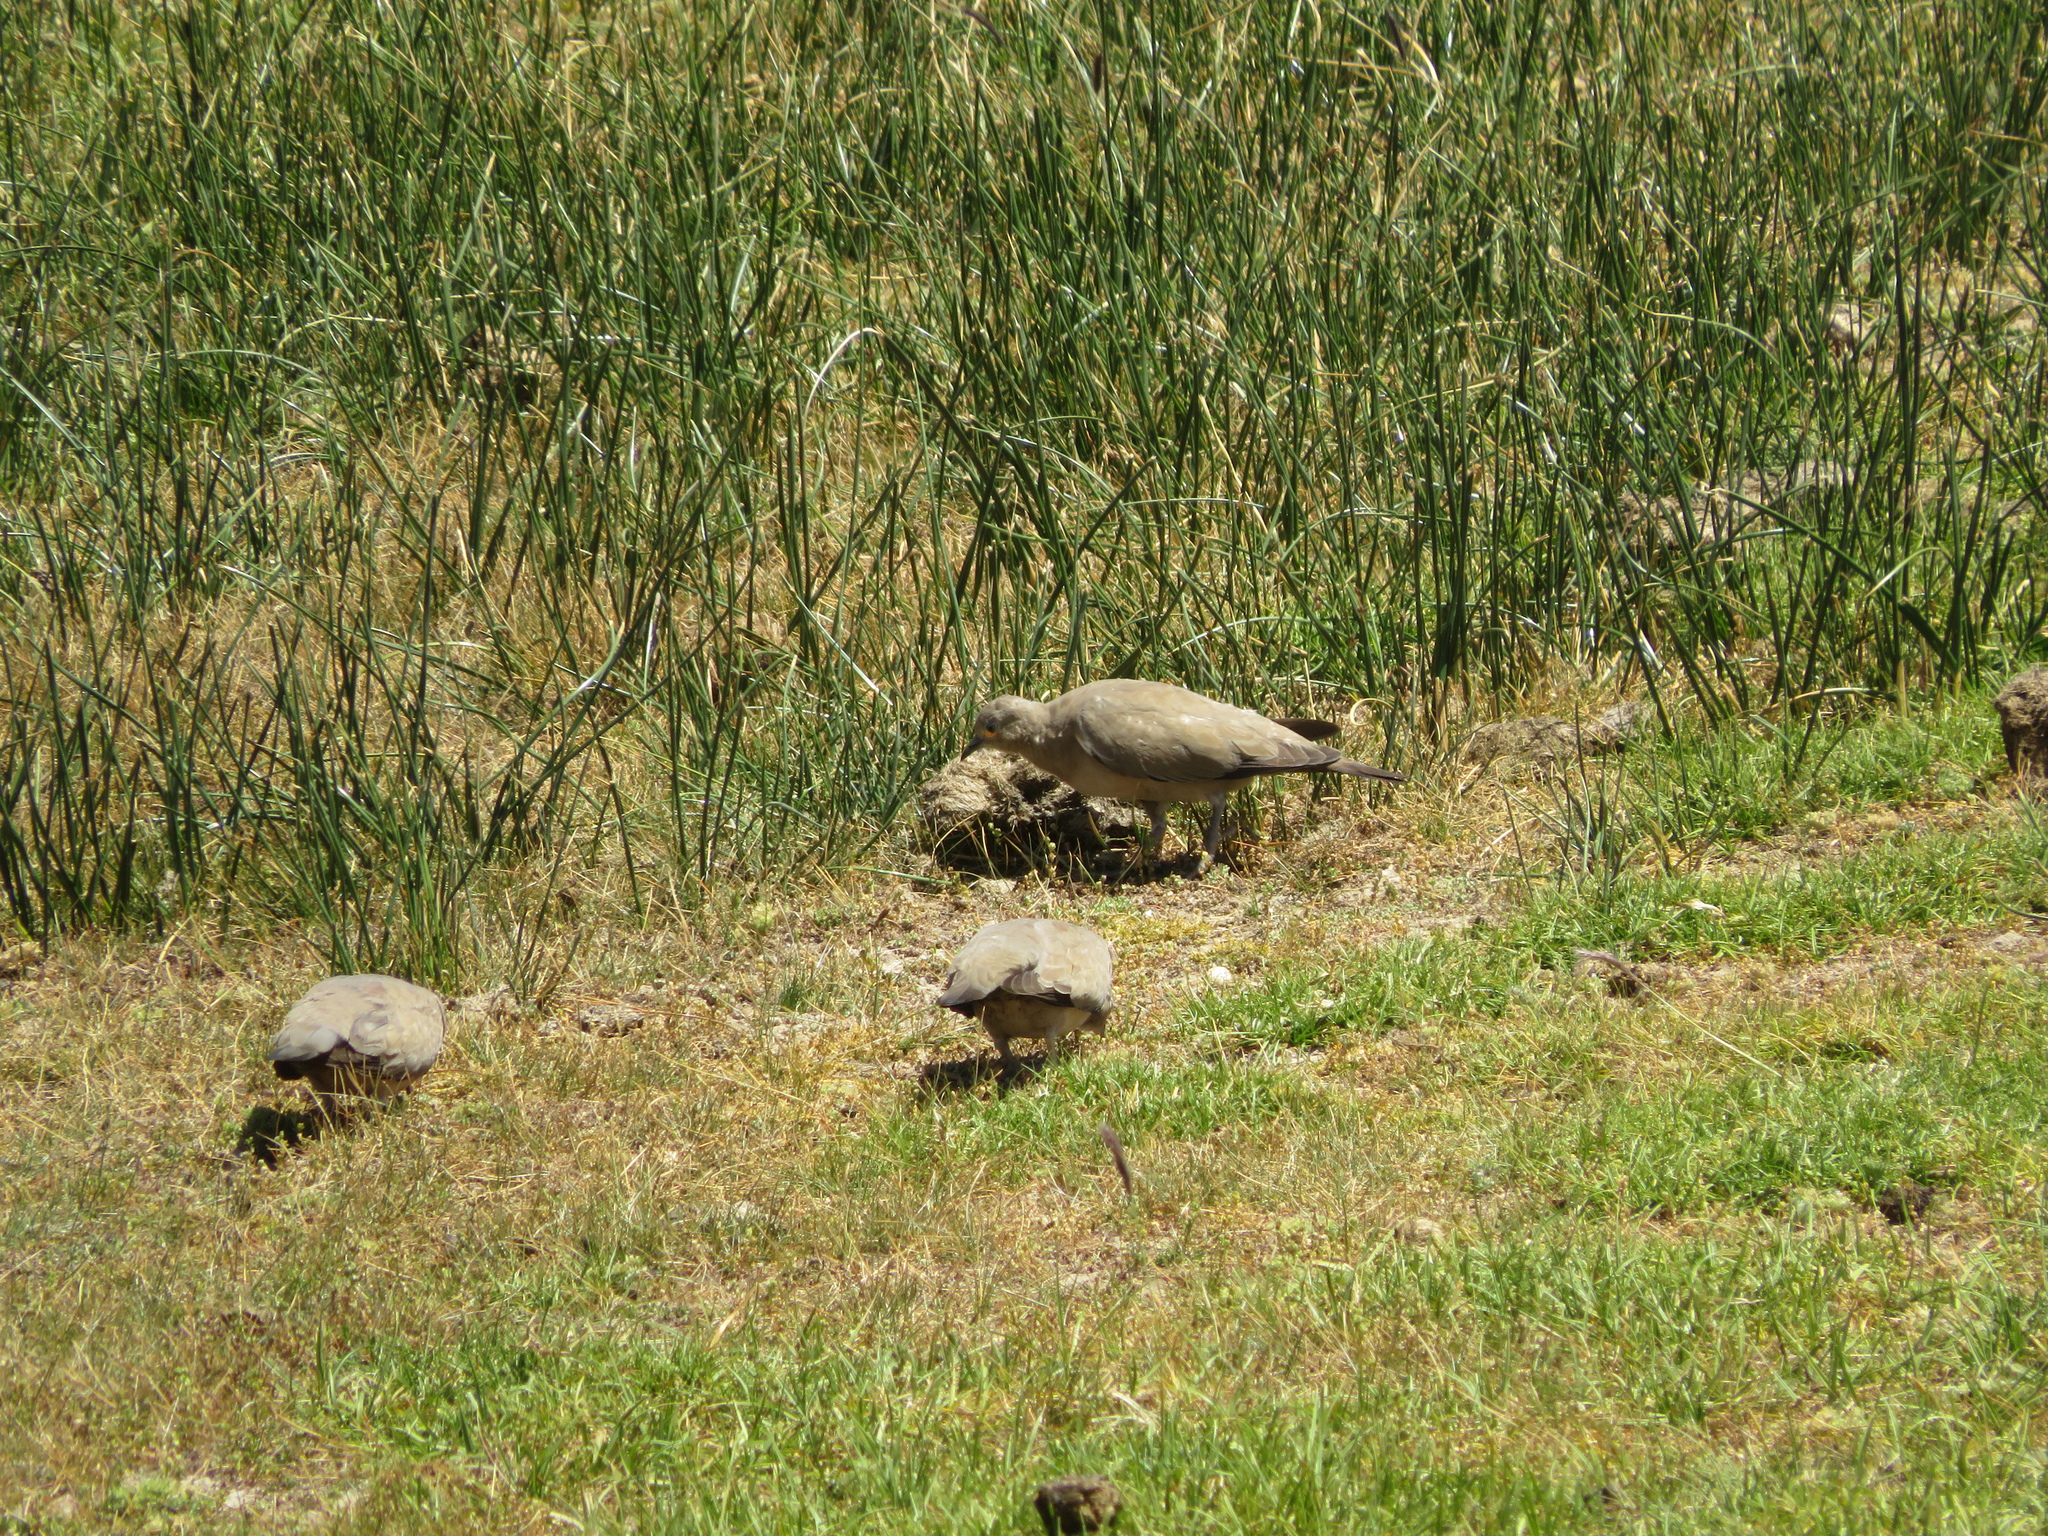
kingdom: Animalia
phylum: Chordata
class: Aves
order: Columbiformes
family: Columbidae
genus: Metriopelia
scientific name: Metriopelia melanoptera
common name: Black-winged ground dove
